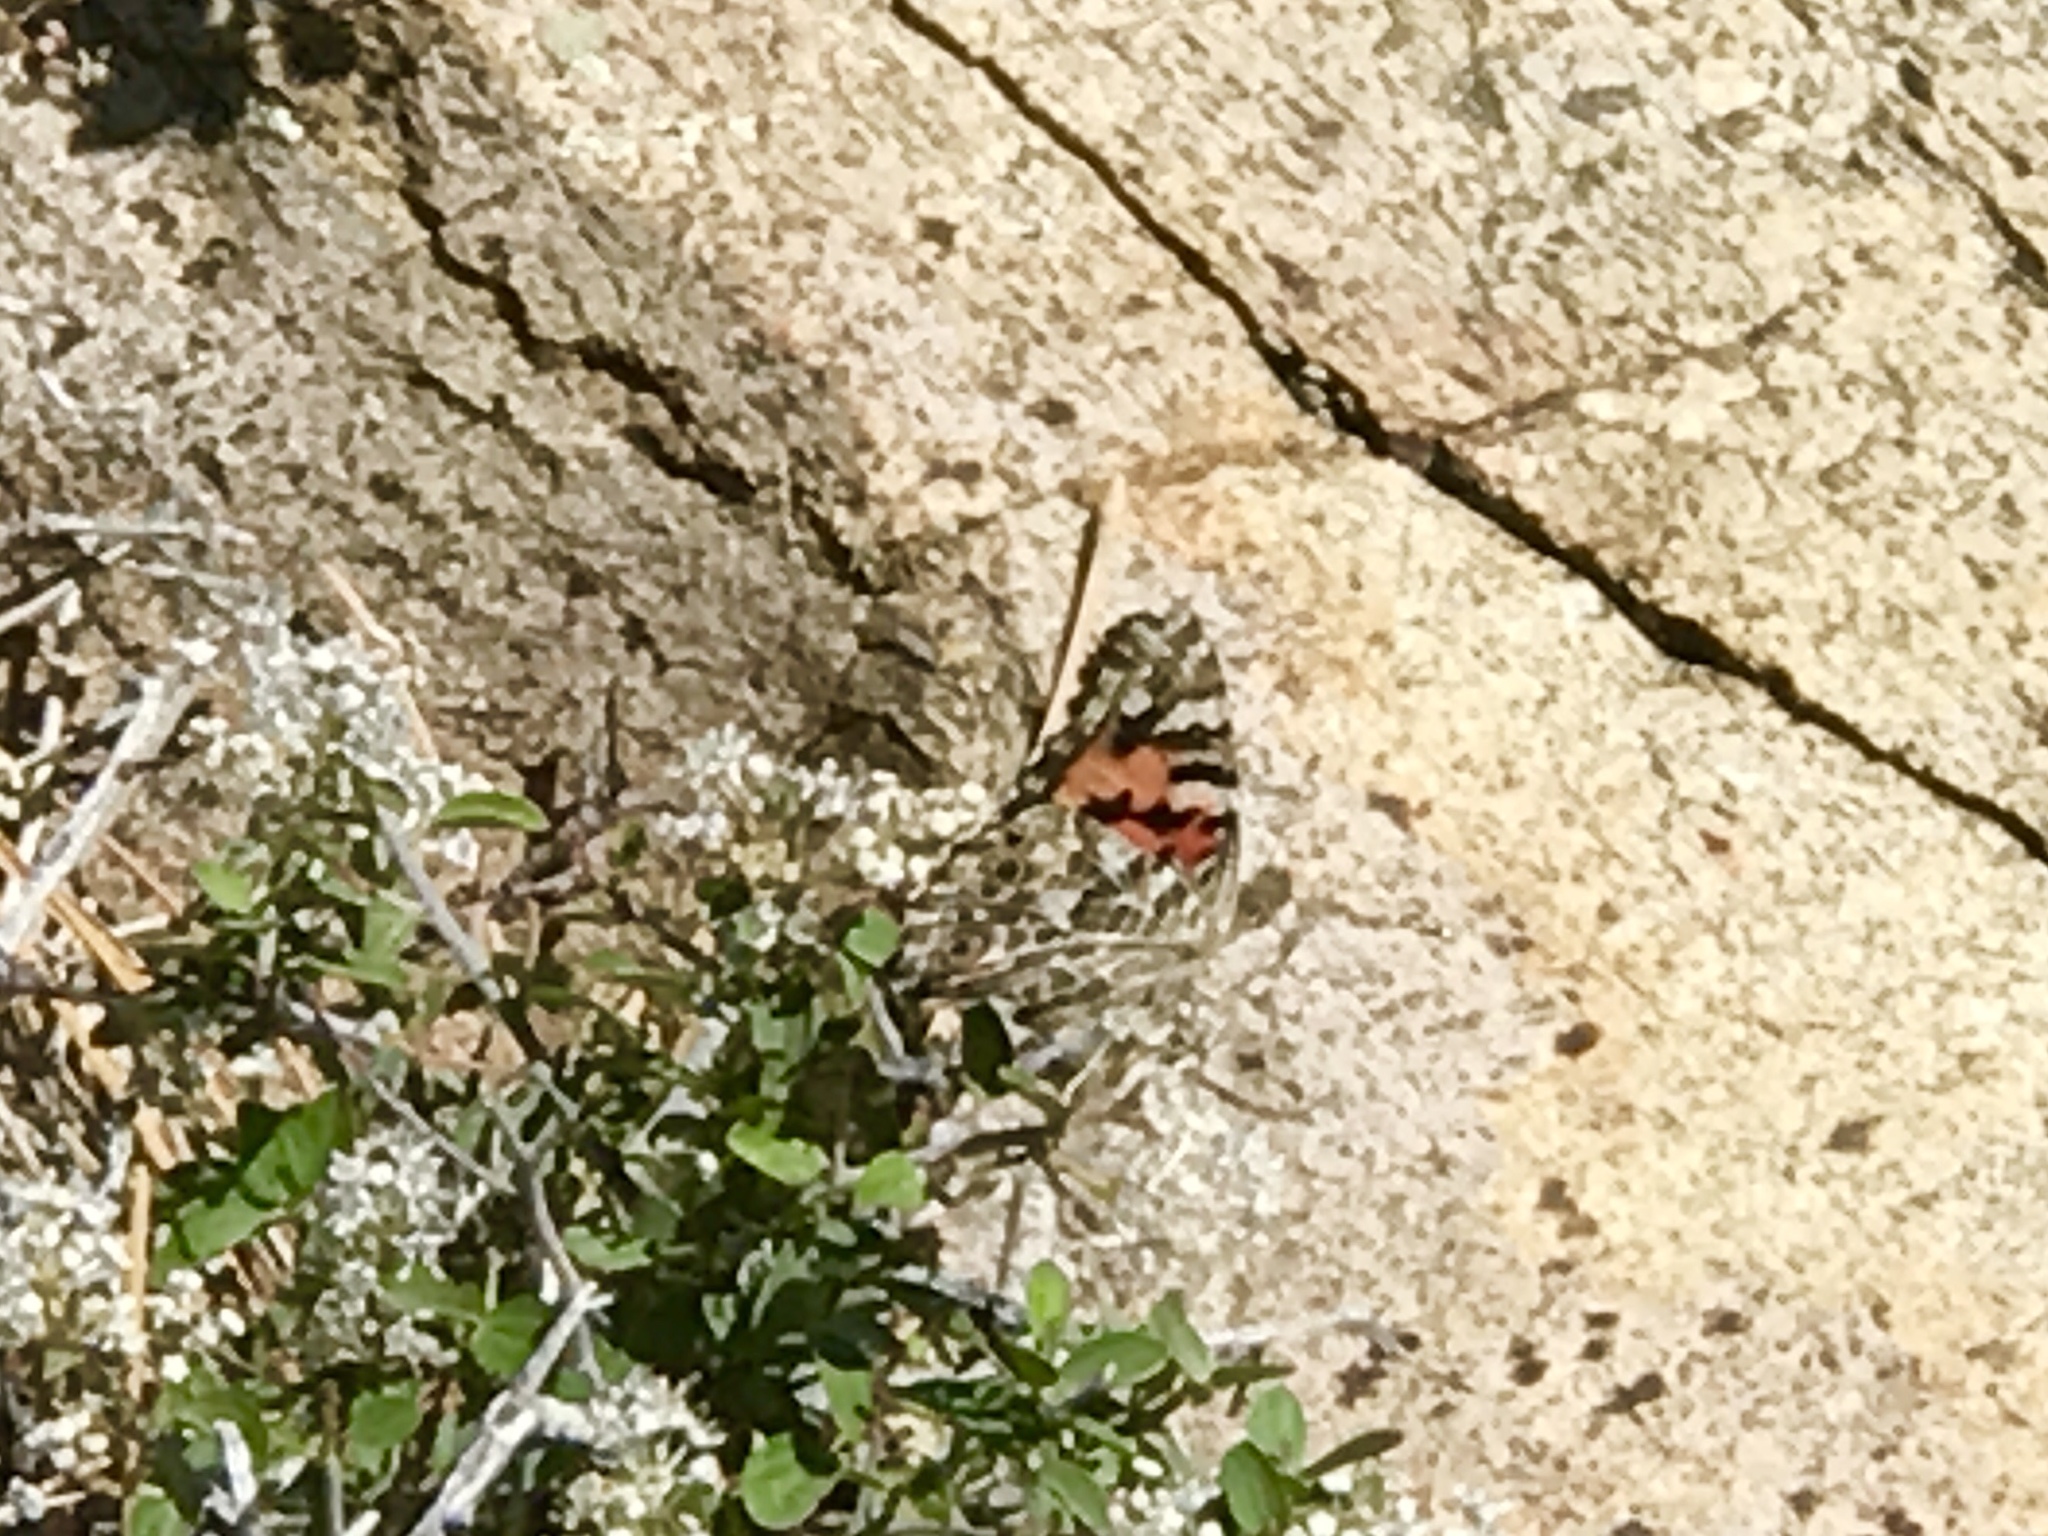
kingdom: Animalia
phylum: Arthropoda
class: Insecta
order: Lepidoptera
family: Nymphalidae
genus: Vanessa
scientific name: Vanessa cardui
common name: Painted lady
